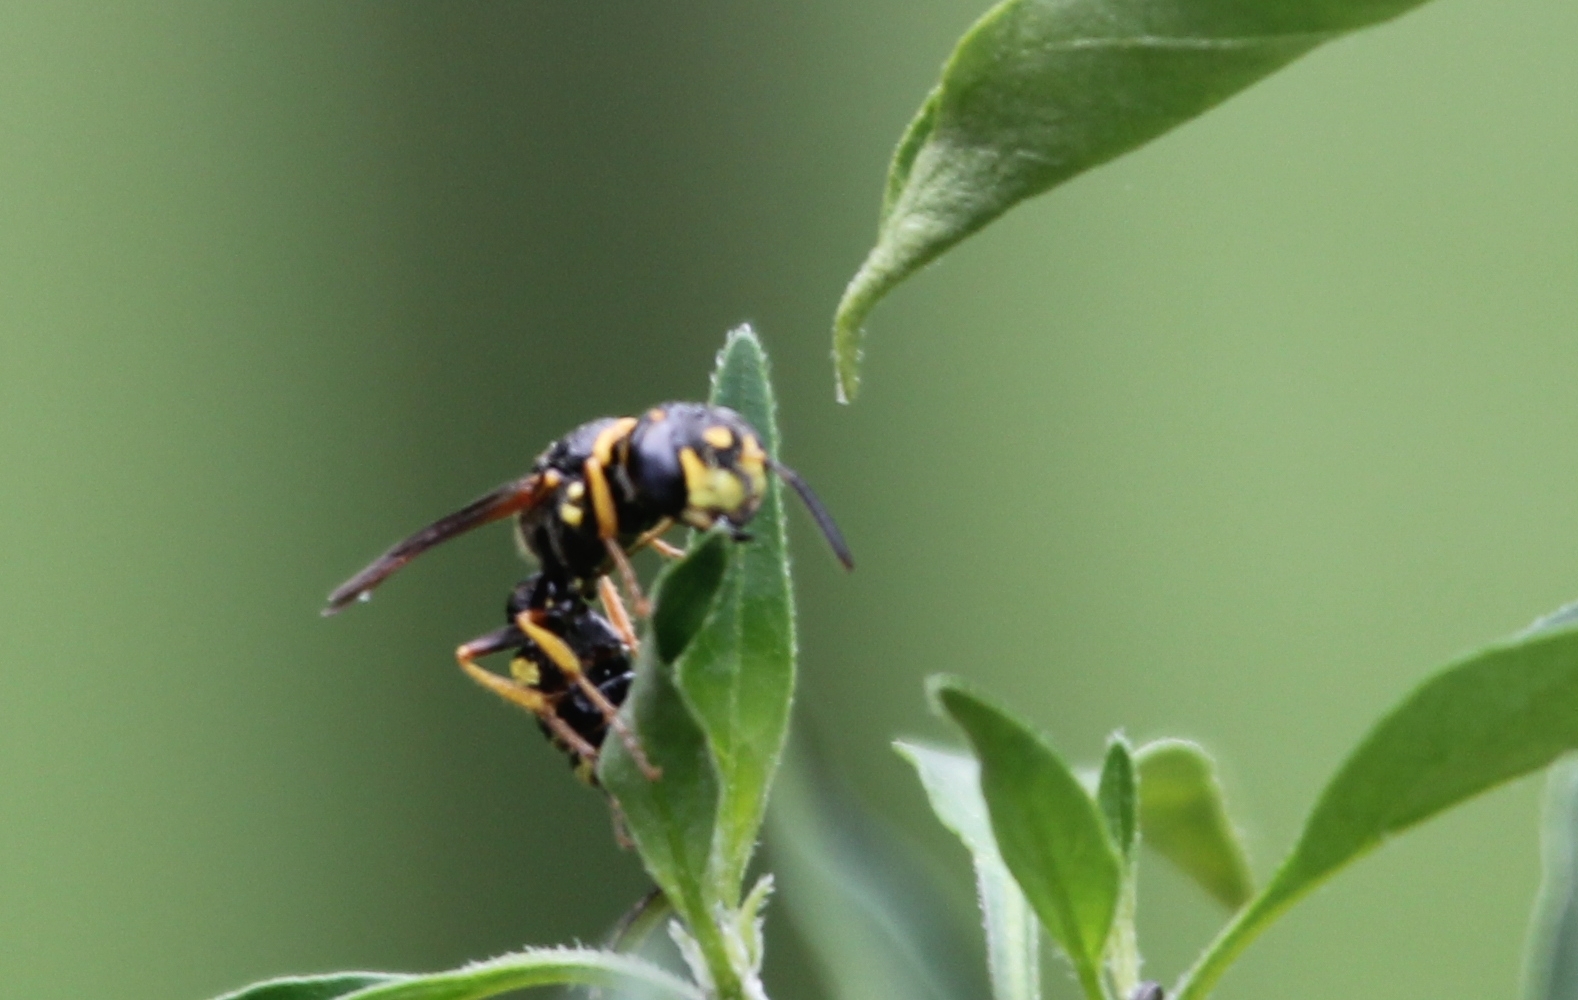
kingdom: Animalia
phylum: Arthropoda
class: Insecta
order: Hymenoptera
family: Crabronidae
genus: Philanthus
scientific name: Philanthus gibbosus
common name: Humped beewolf
